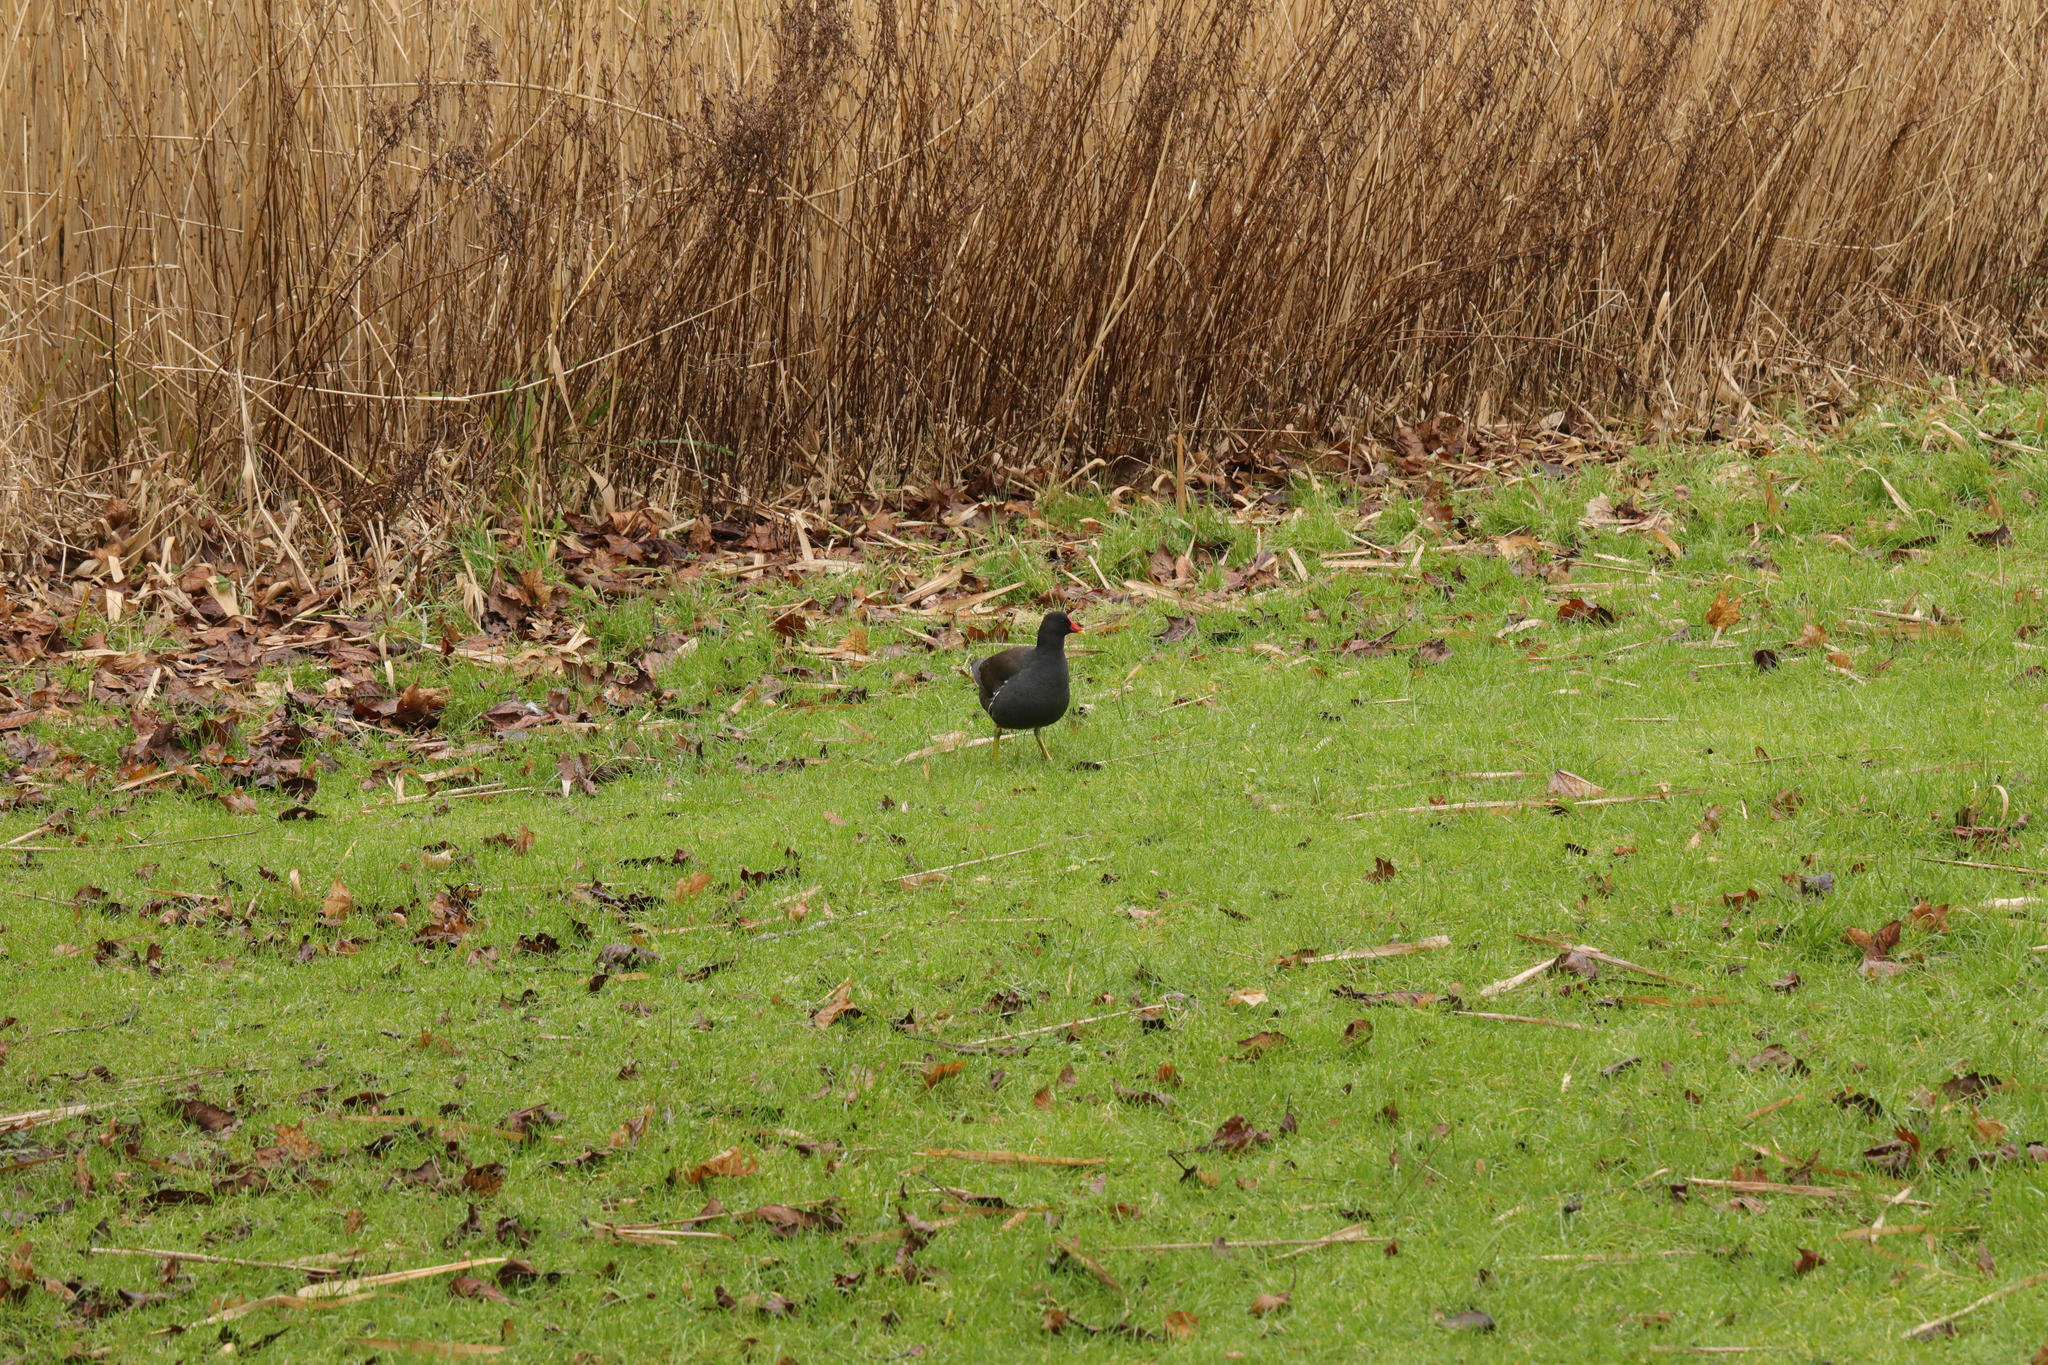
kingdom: Animalia
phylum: Chordata
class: Aves
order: Gruiformes
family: Rallidae
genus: Gallinula
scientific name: Gallinula chloropus
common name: Common moorhen
